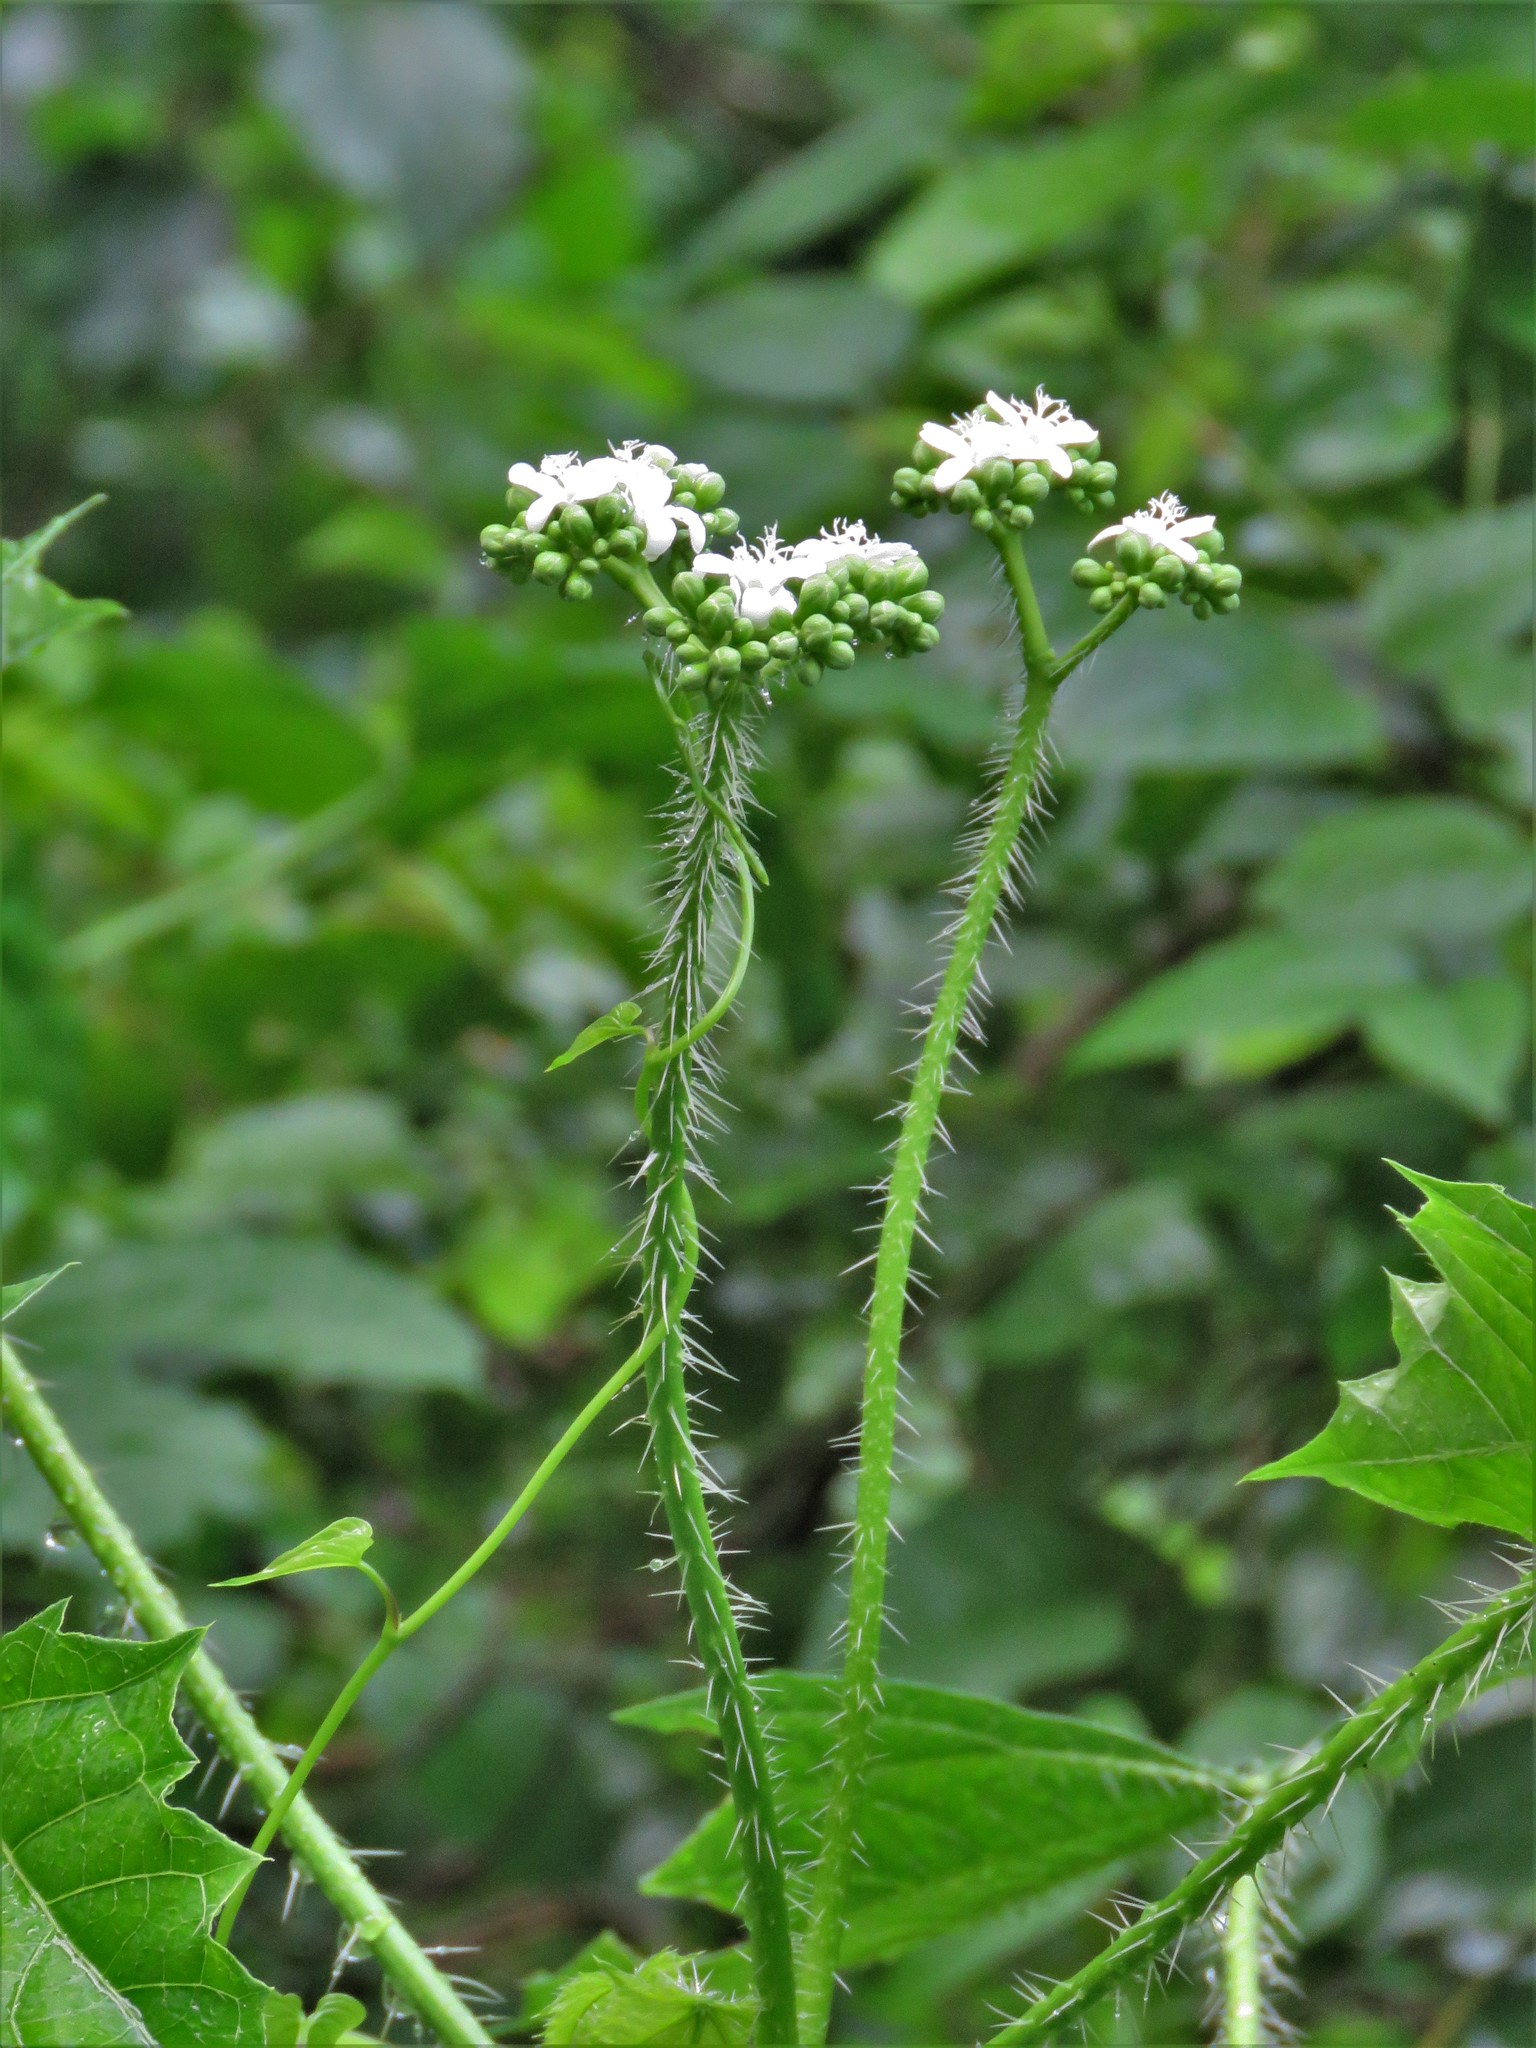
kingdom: Plantae
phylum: Tracheophyta
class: Magnoliopsida
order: Malpighiales
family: Euphorbiaceae
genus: Cnidoscolus
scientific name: Cnidoscolus multilobus
